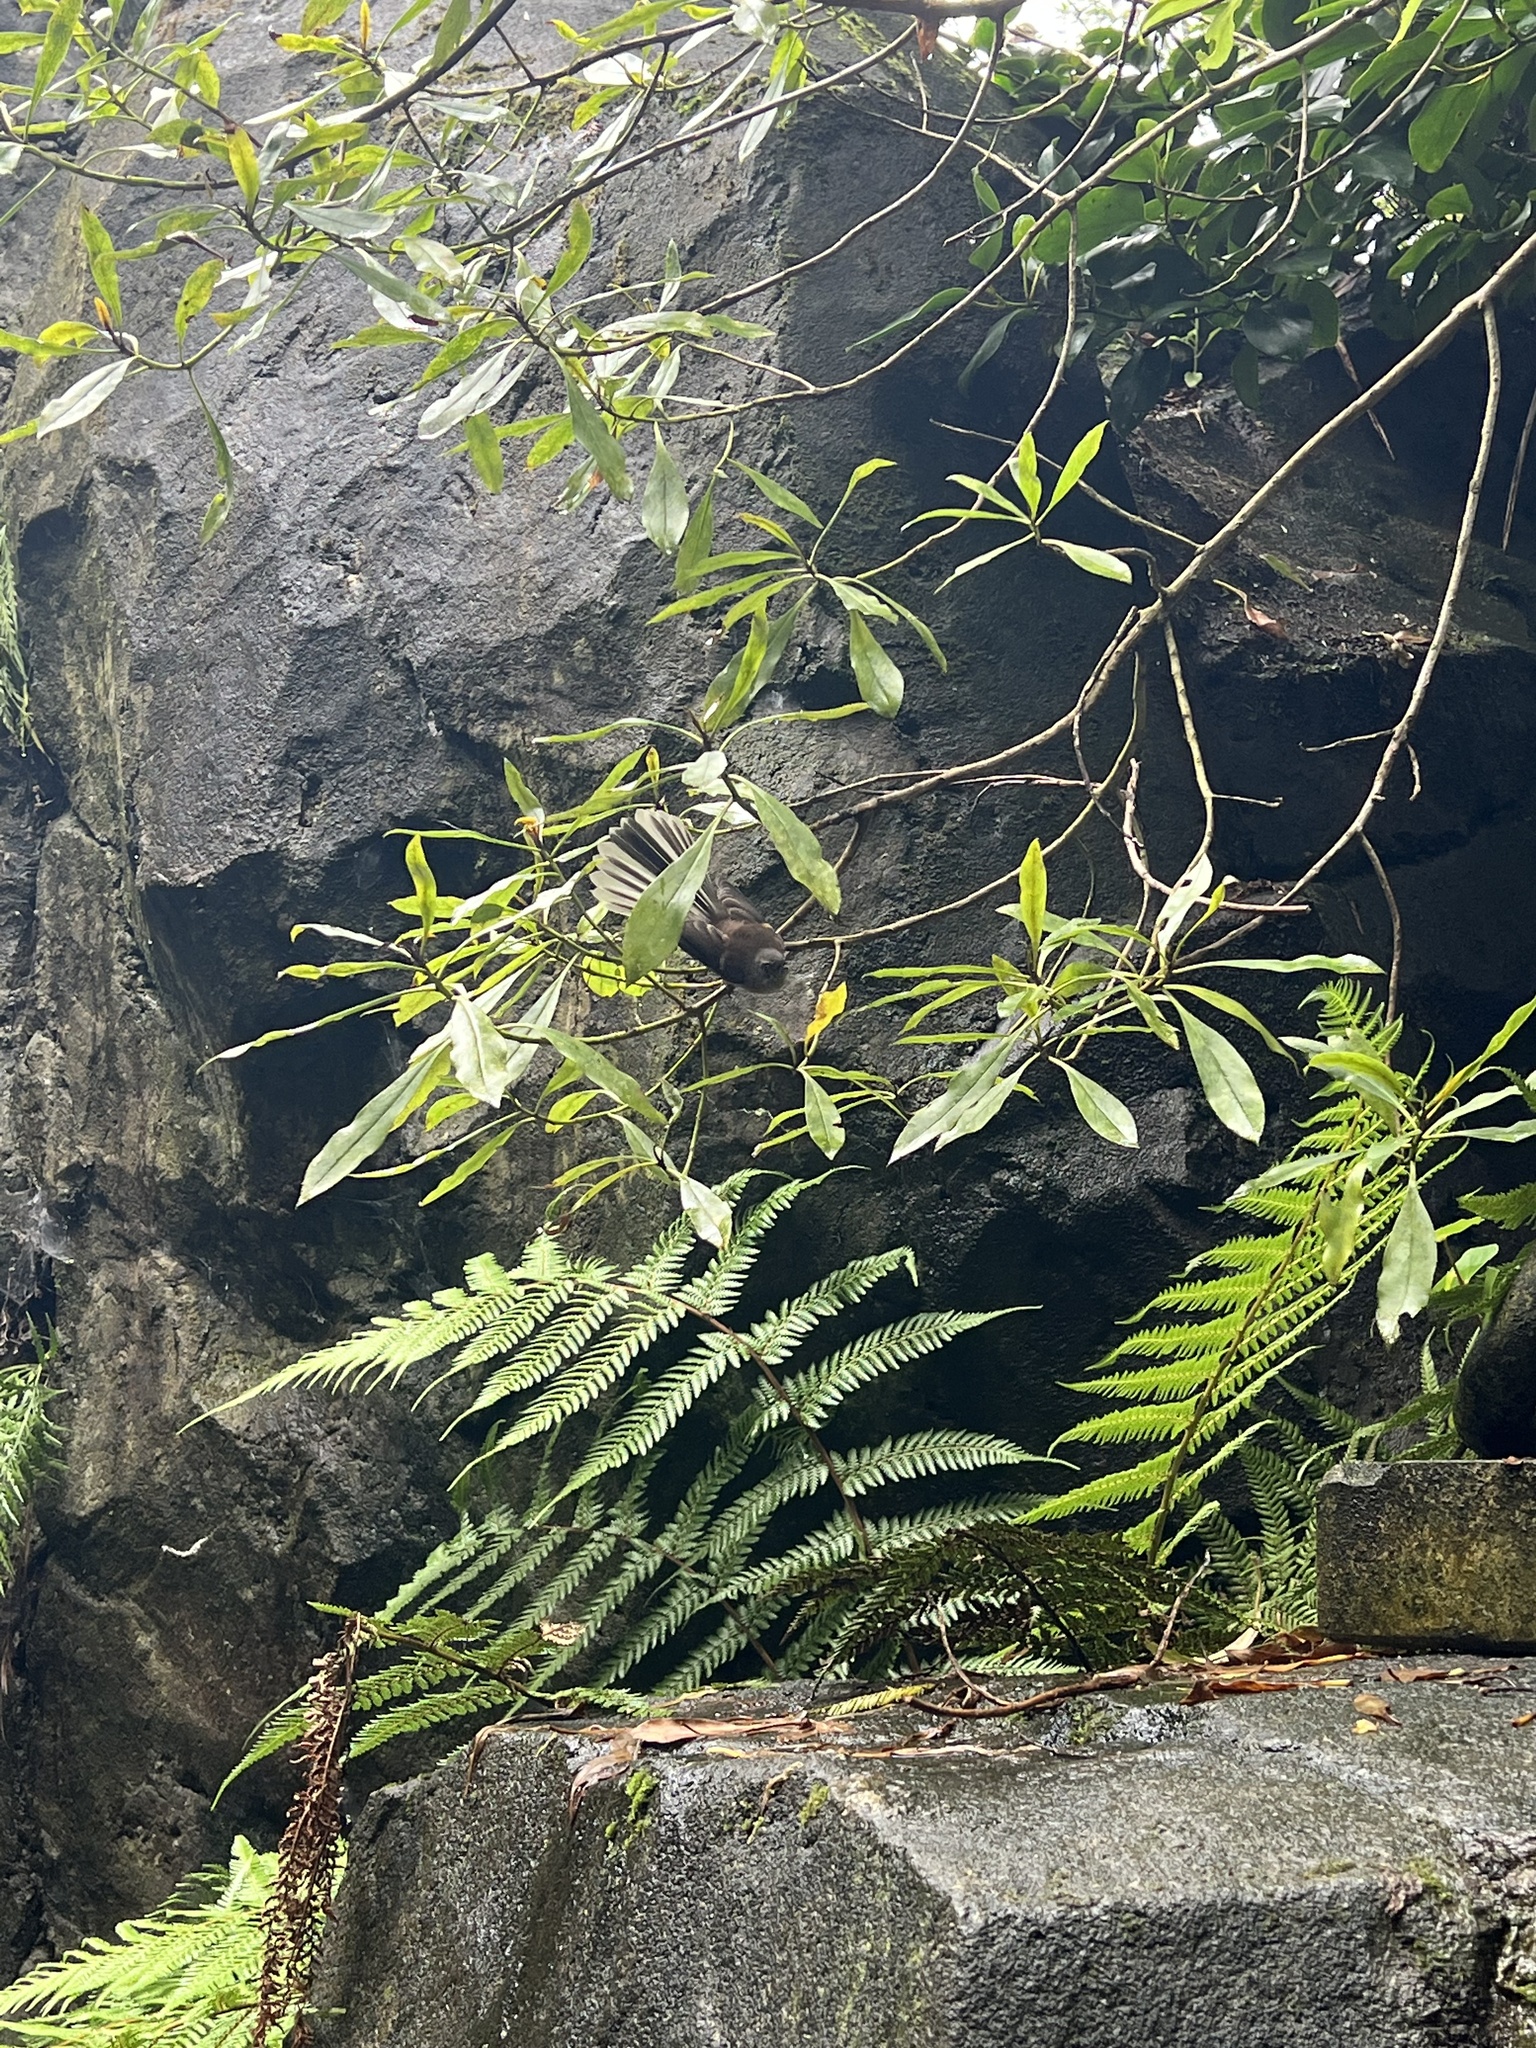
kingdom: Animalia
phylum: Chordata
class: Aves
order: Passeriformes
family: Rhipiduridae
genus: Rhipidura
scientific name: Rhipidura fuliginosa
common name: New zealand fantail
